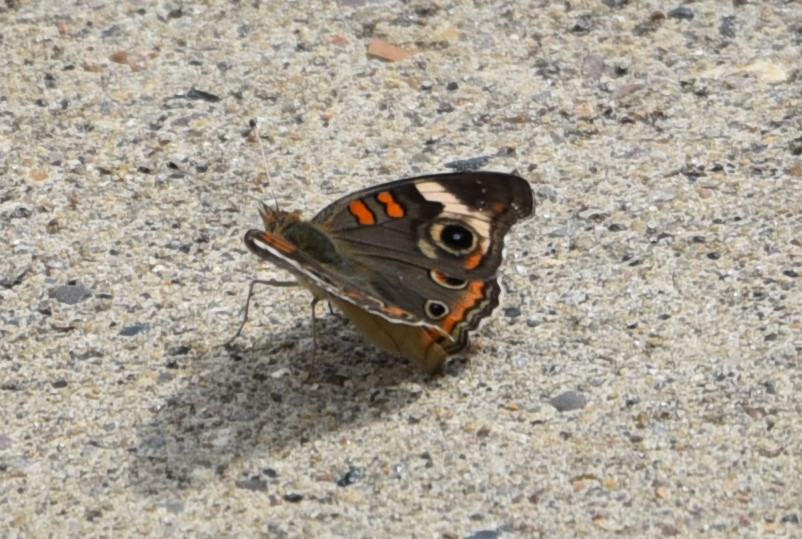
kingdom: Animalia
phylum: Arthropoda
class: Insecta
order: Lepidoptera
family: Nymphalidae
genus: Junonia
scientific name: Junonia coenia
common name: Common buckeye
